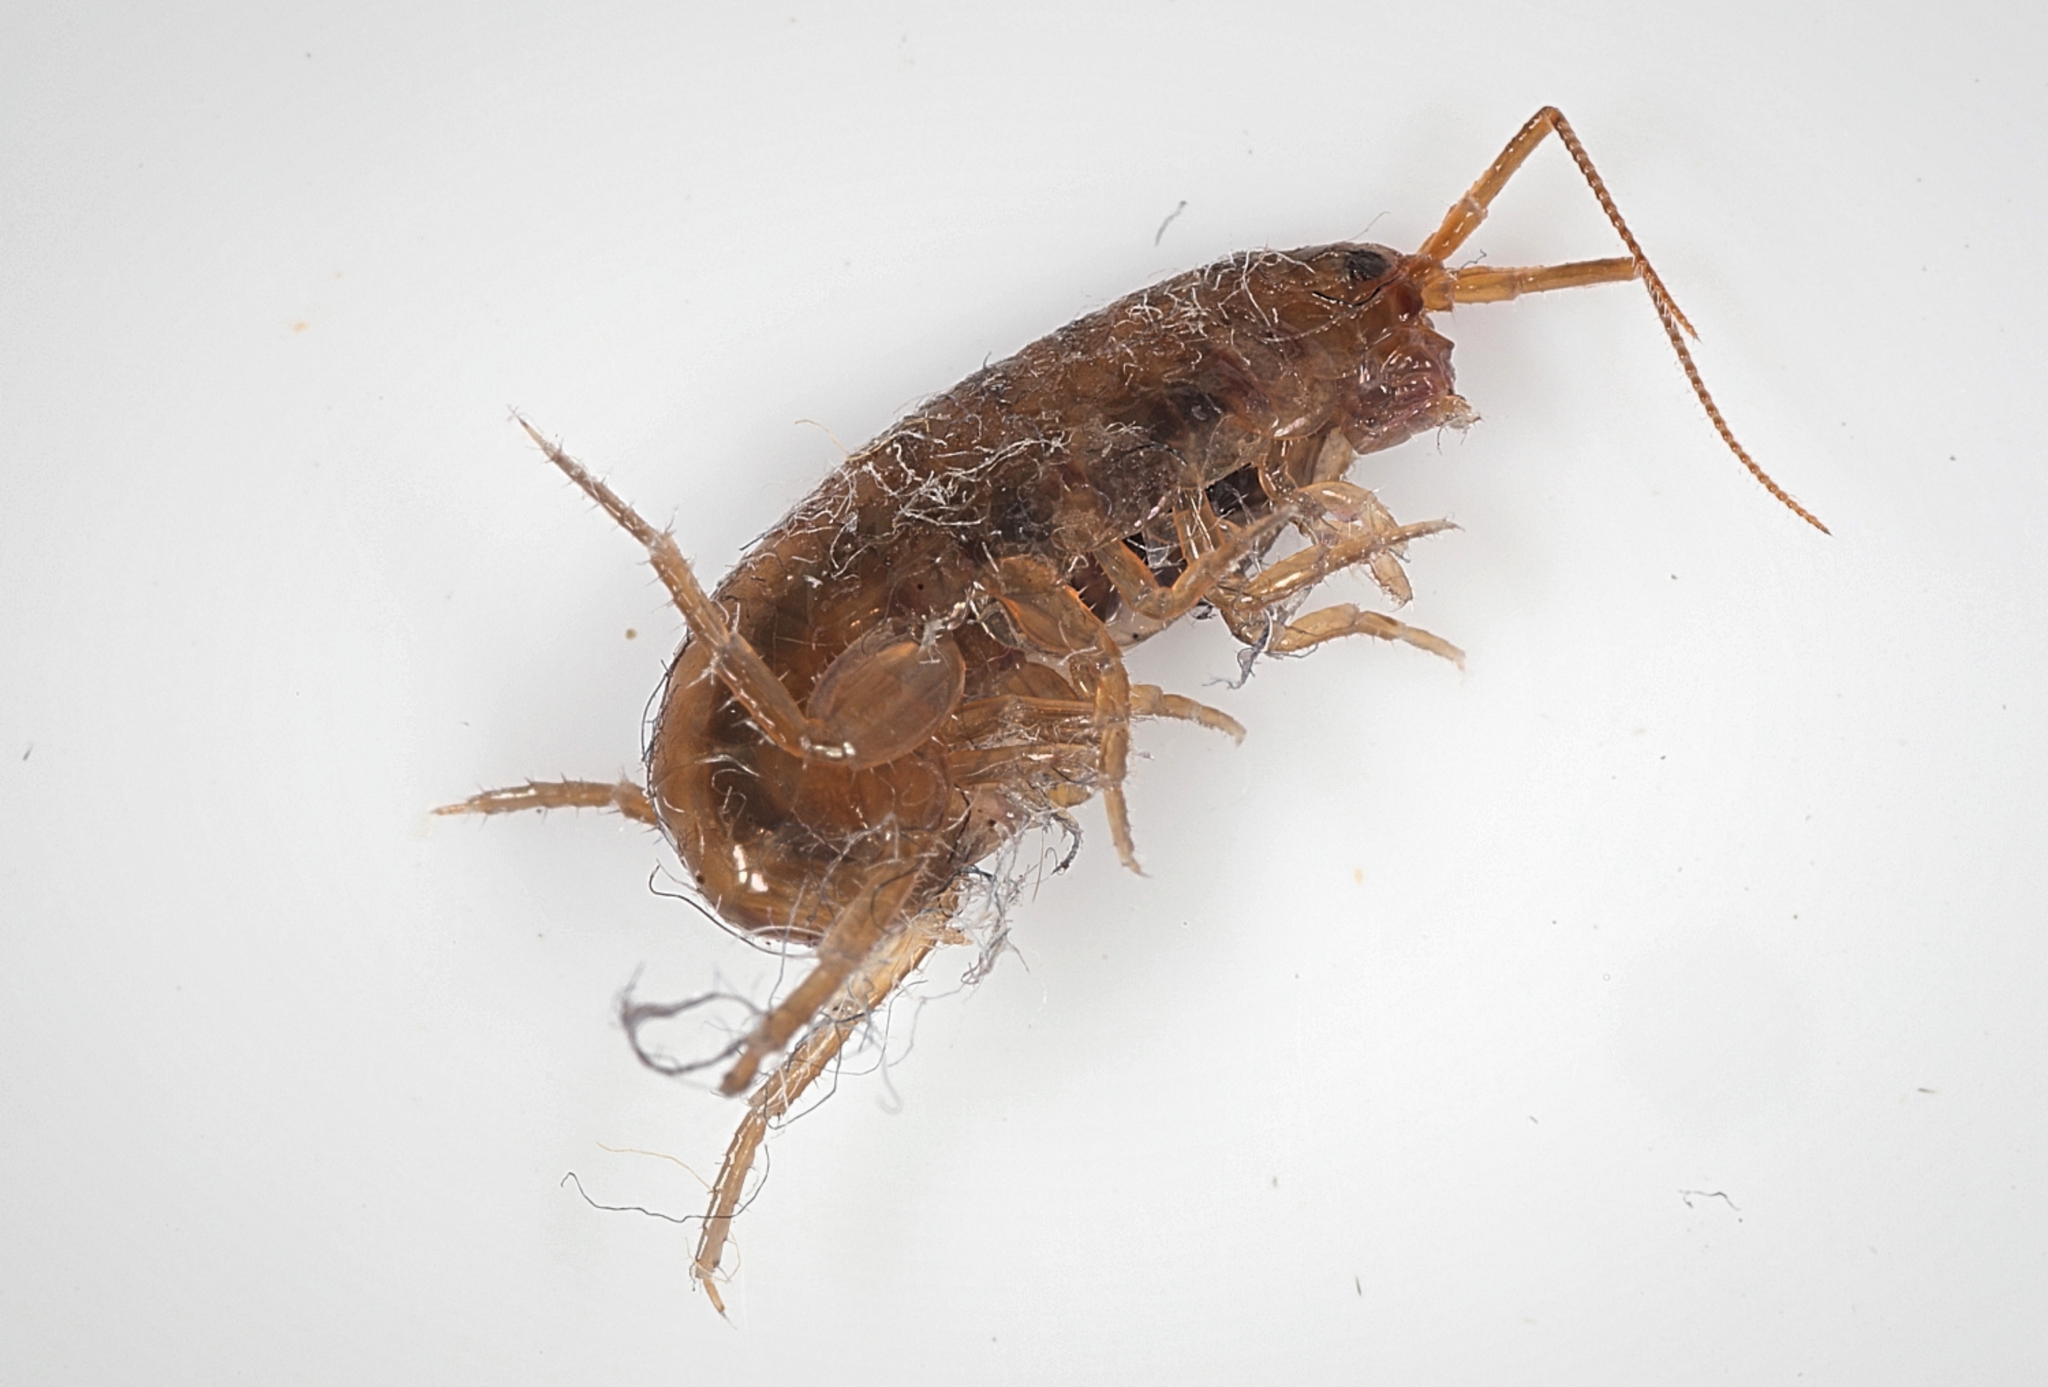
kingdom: Animalia
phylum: Arthropoda
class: Malacostraca
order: Amphipoda
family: Arcitalitridae
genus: Arcitalitrus
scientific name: Arcitalitrus dorrieni
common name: Landhopper
